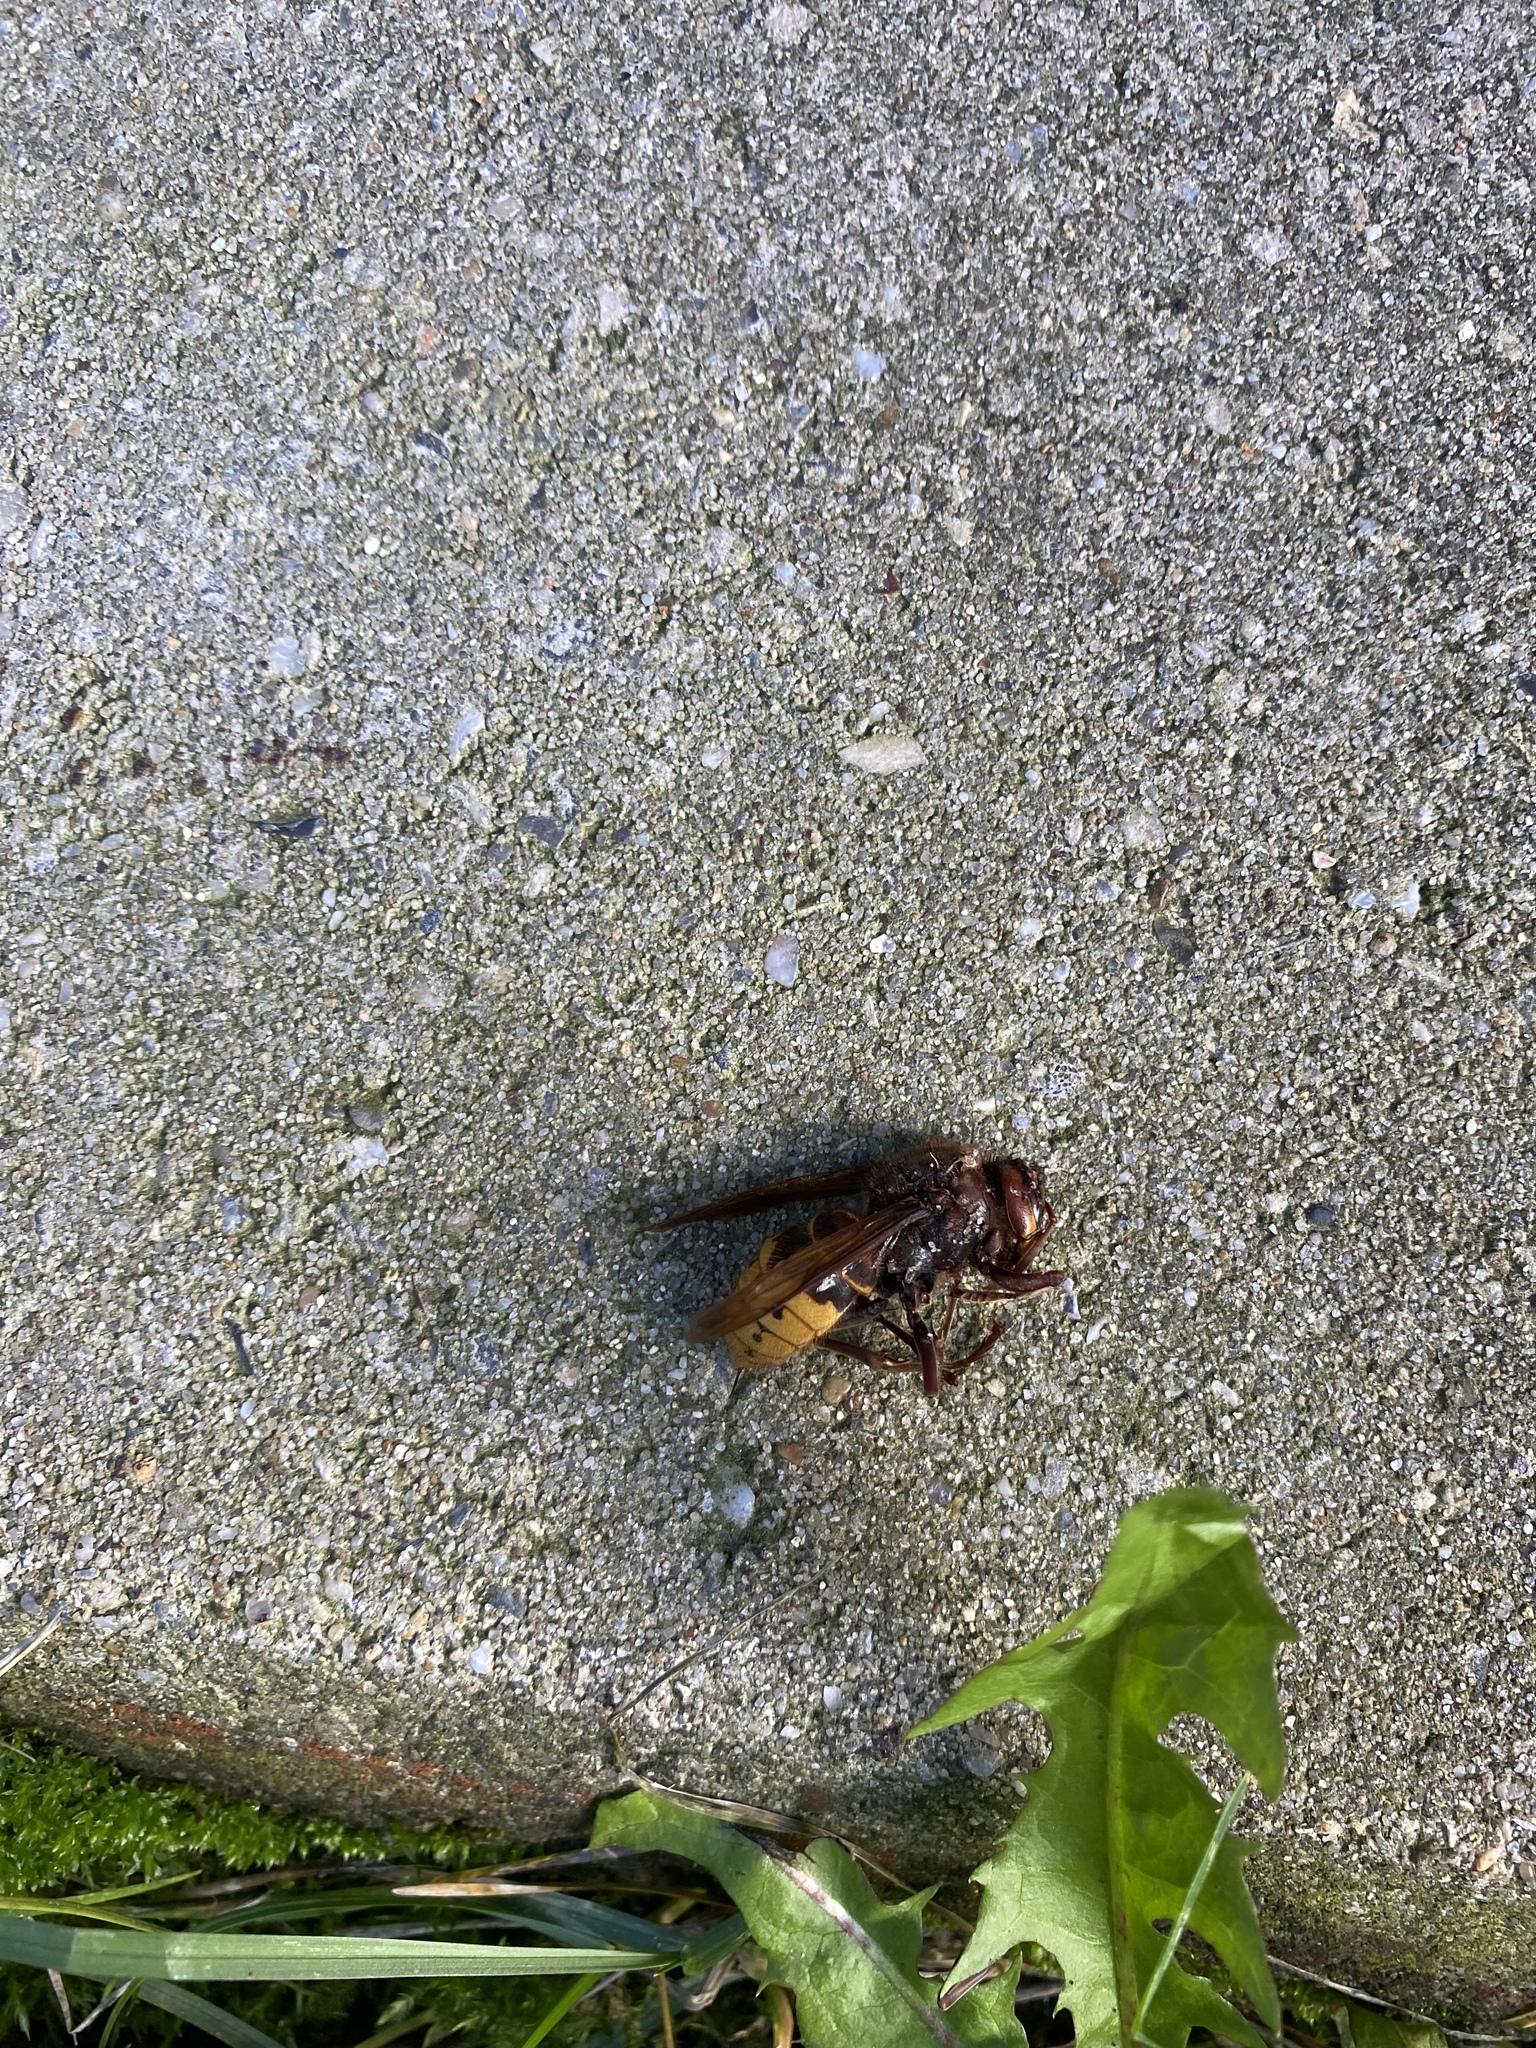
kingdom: Animalia
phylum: Arthropoda
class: Insecta
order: Hymenoptera
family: Vespidae
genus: Vespa
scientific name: Vespa crabro
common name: Hornet
